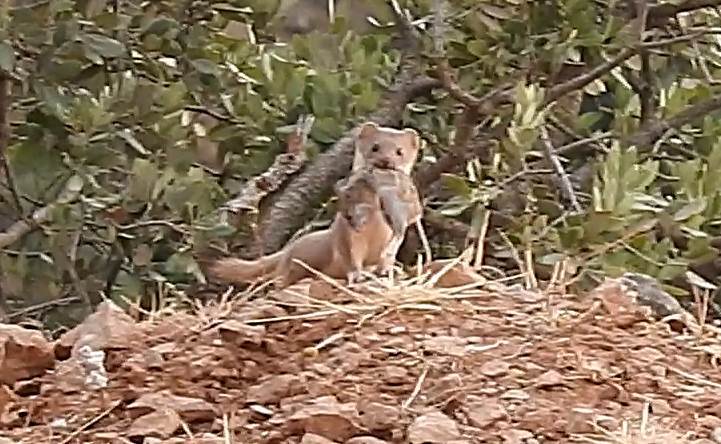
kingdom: Animalia
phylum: Chordata
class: Mammalia
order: Carnivora
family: Mustelidae
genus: Mustela
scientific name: Mustela nivalis
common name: Least weasel
